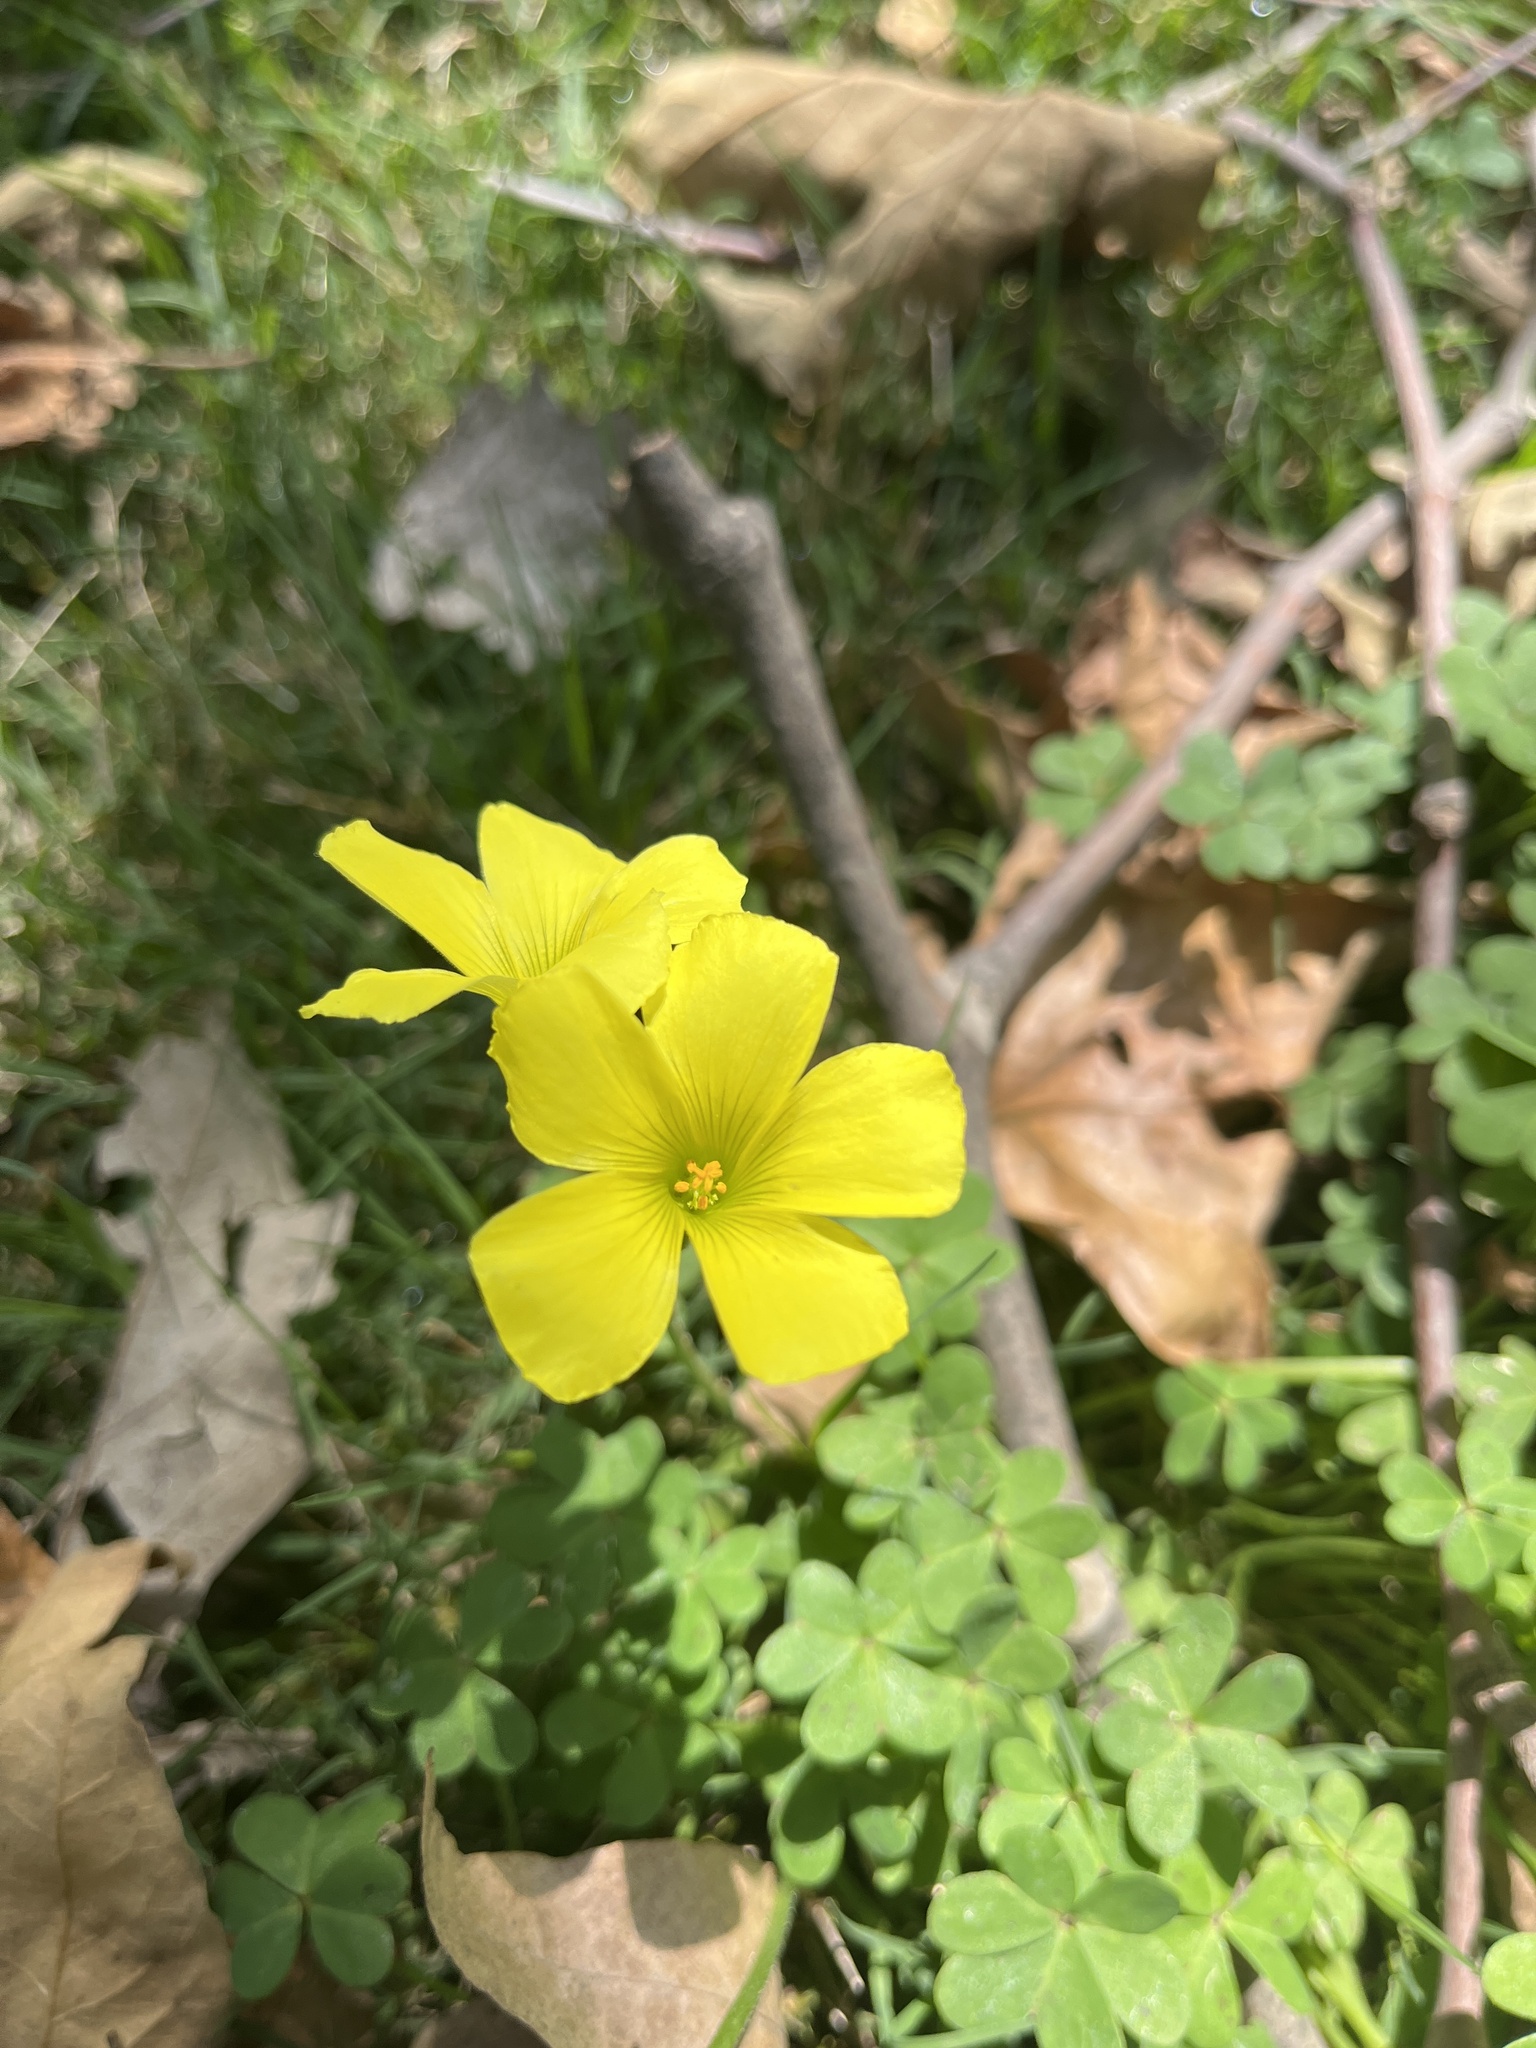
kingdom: Plantae
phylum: Tracheophyta
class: Magnoliopsida
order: Oxalidales
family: Oxalidaceae
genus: Oxalis
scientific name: Oxalis pes-caprae
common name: Bermuda-buttercup
